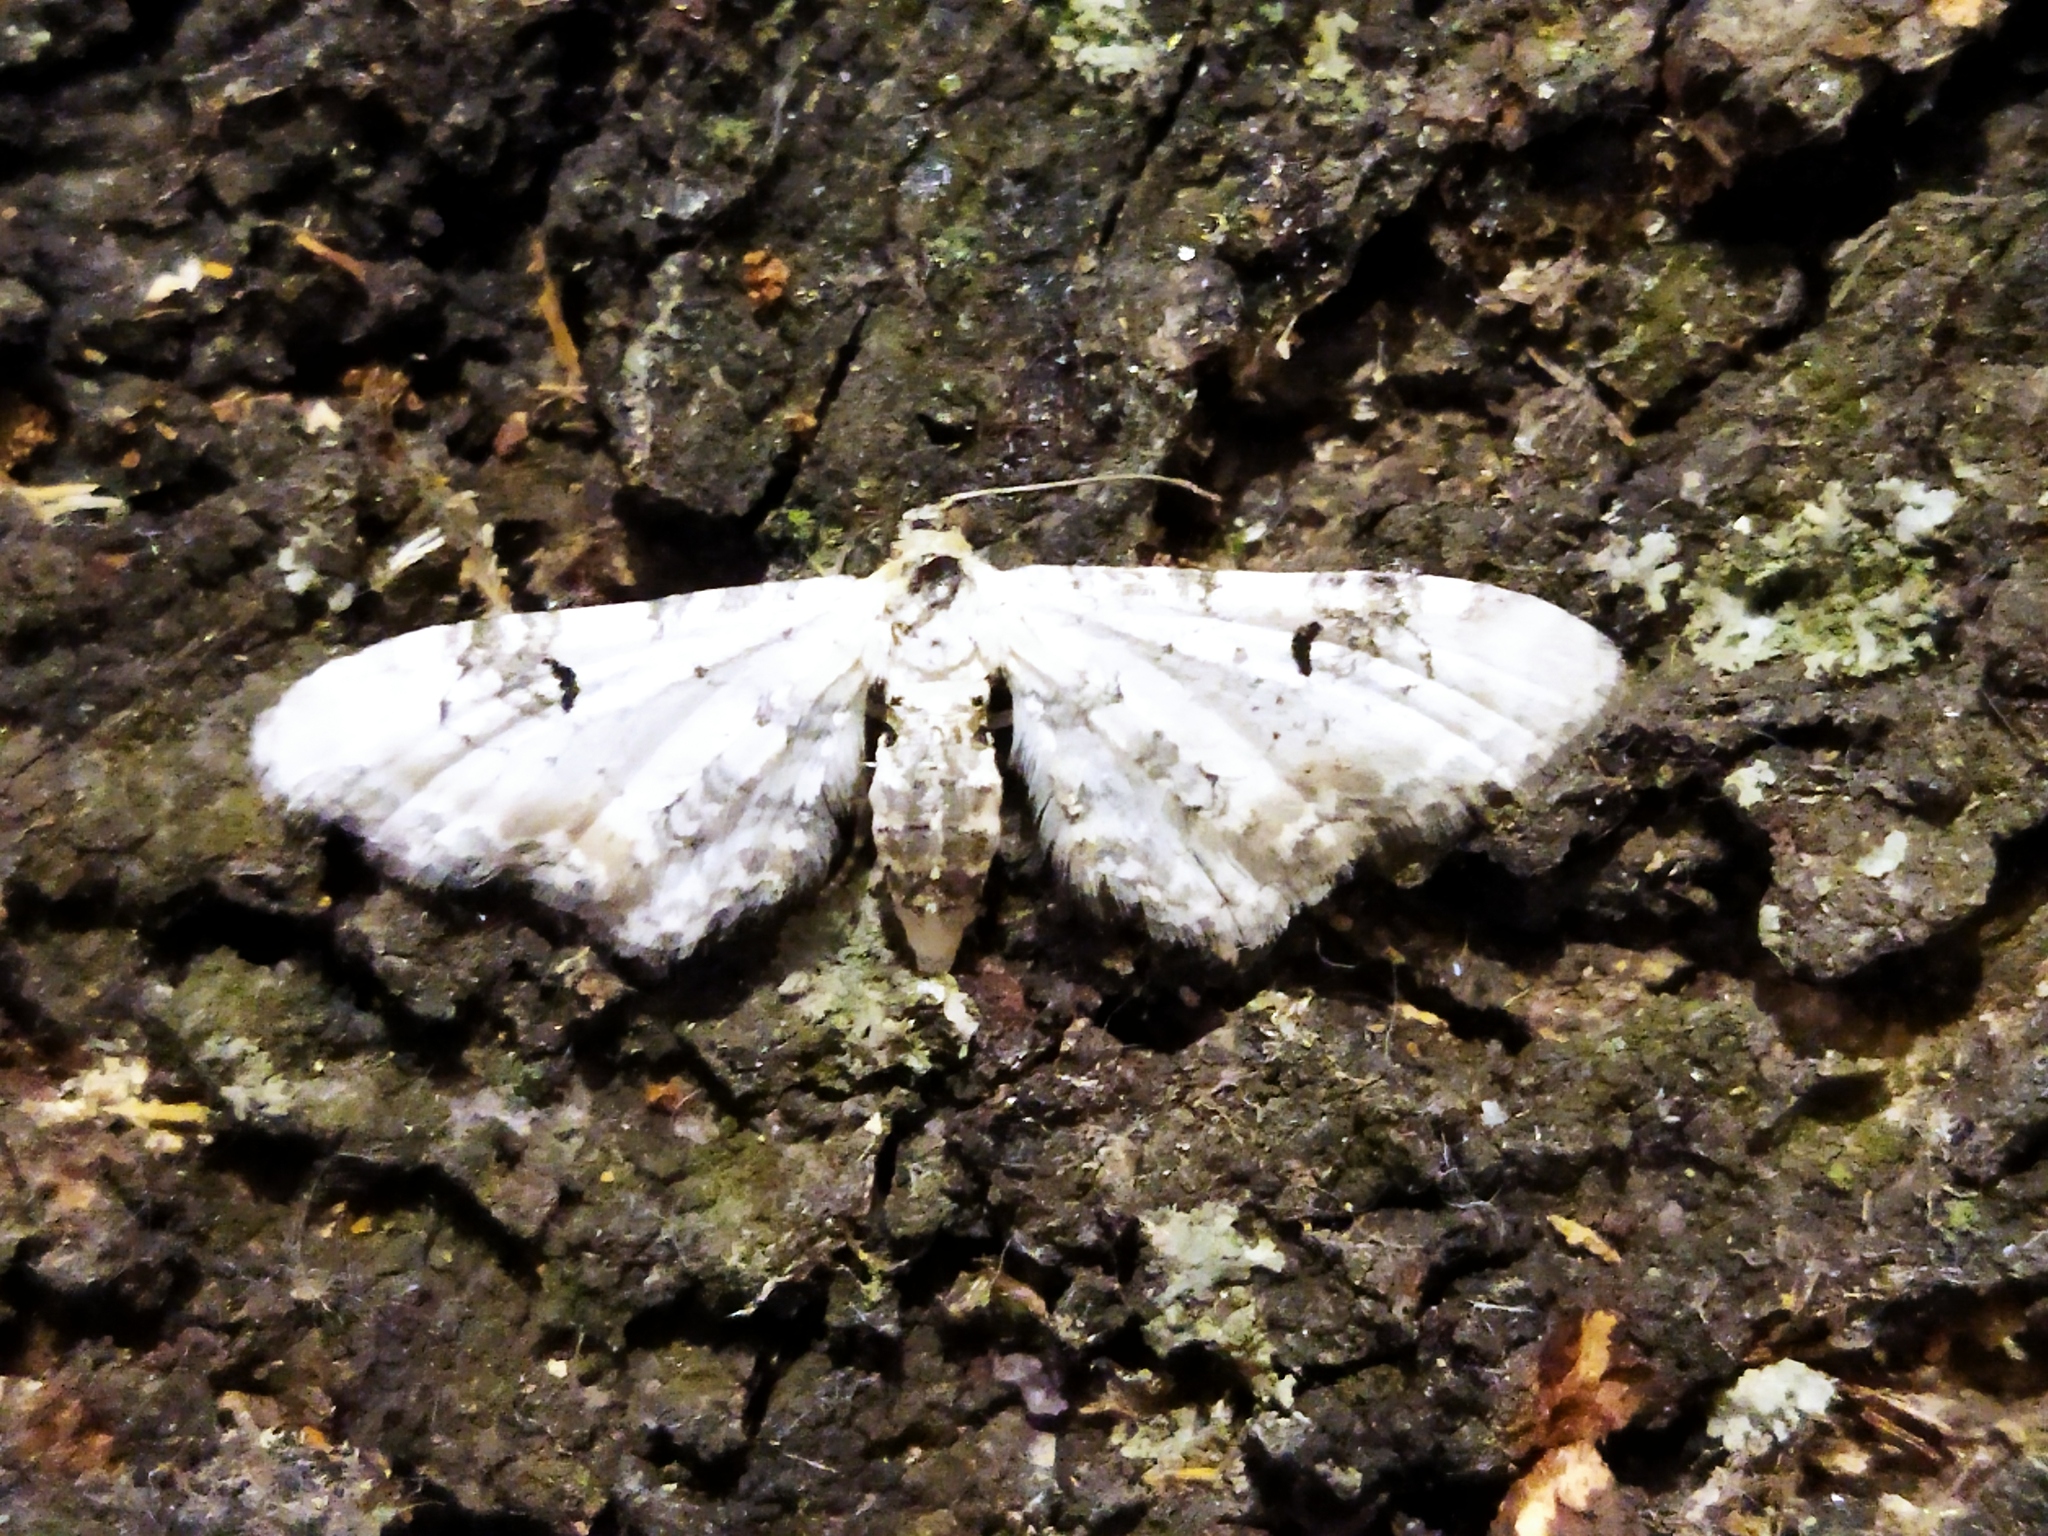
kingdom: Animalia
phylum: Arthropoda
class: Insecta
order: Lepidoptera
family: Geometridae
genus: Eupithecia
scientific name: Eupithecia centaureata
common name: Lime-speck pug
